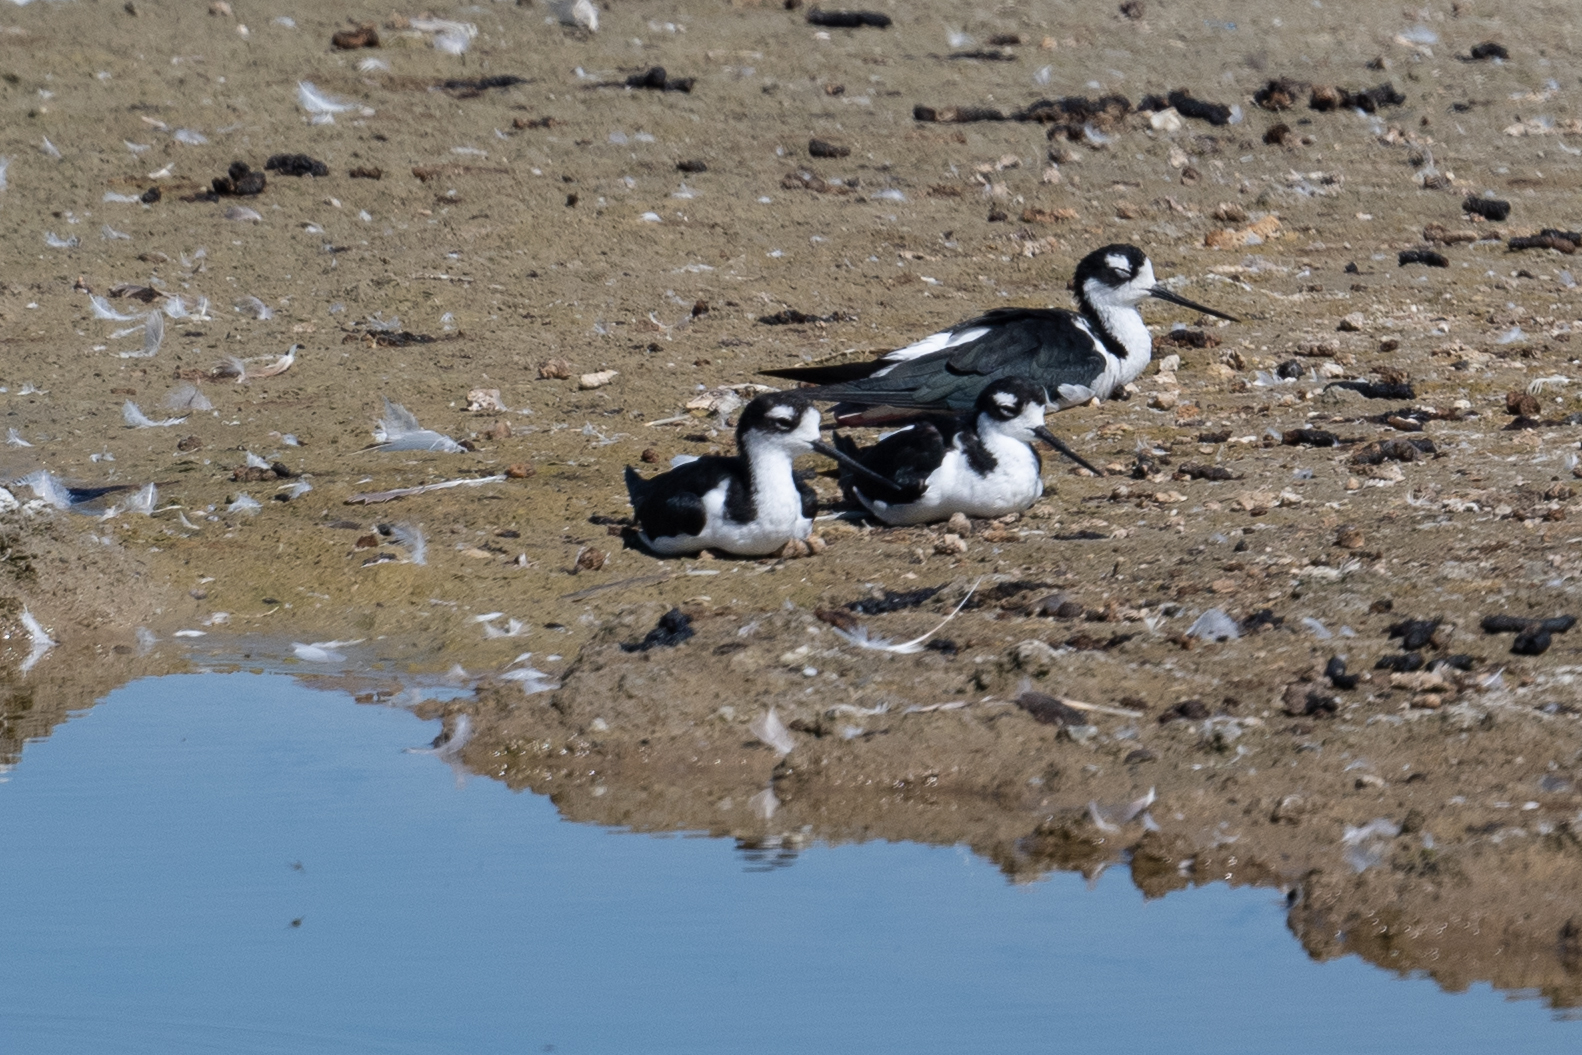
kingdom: Animalia
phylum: Chordata
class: Aves
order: Charadriiformes
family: Recurvirostridae
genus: Himantopus
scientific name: Himantopus mexicanus
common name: Black-necked stilt
